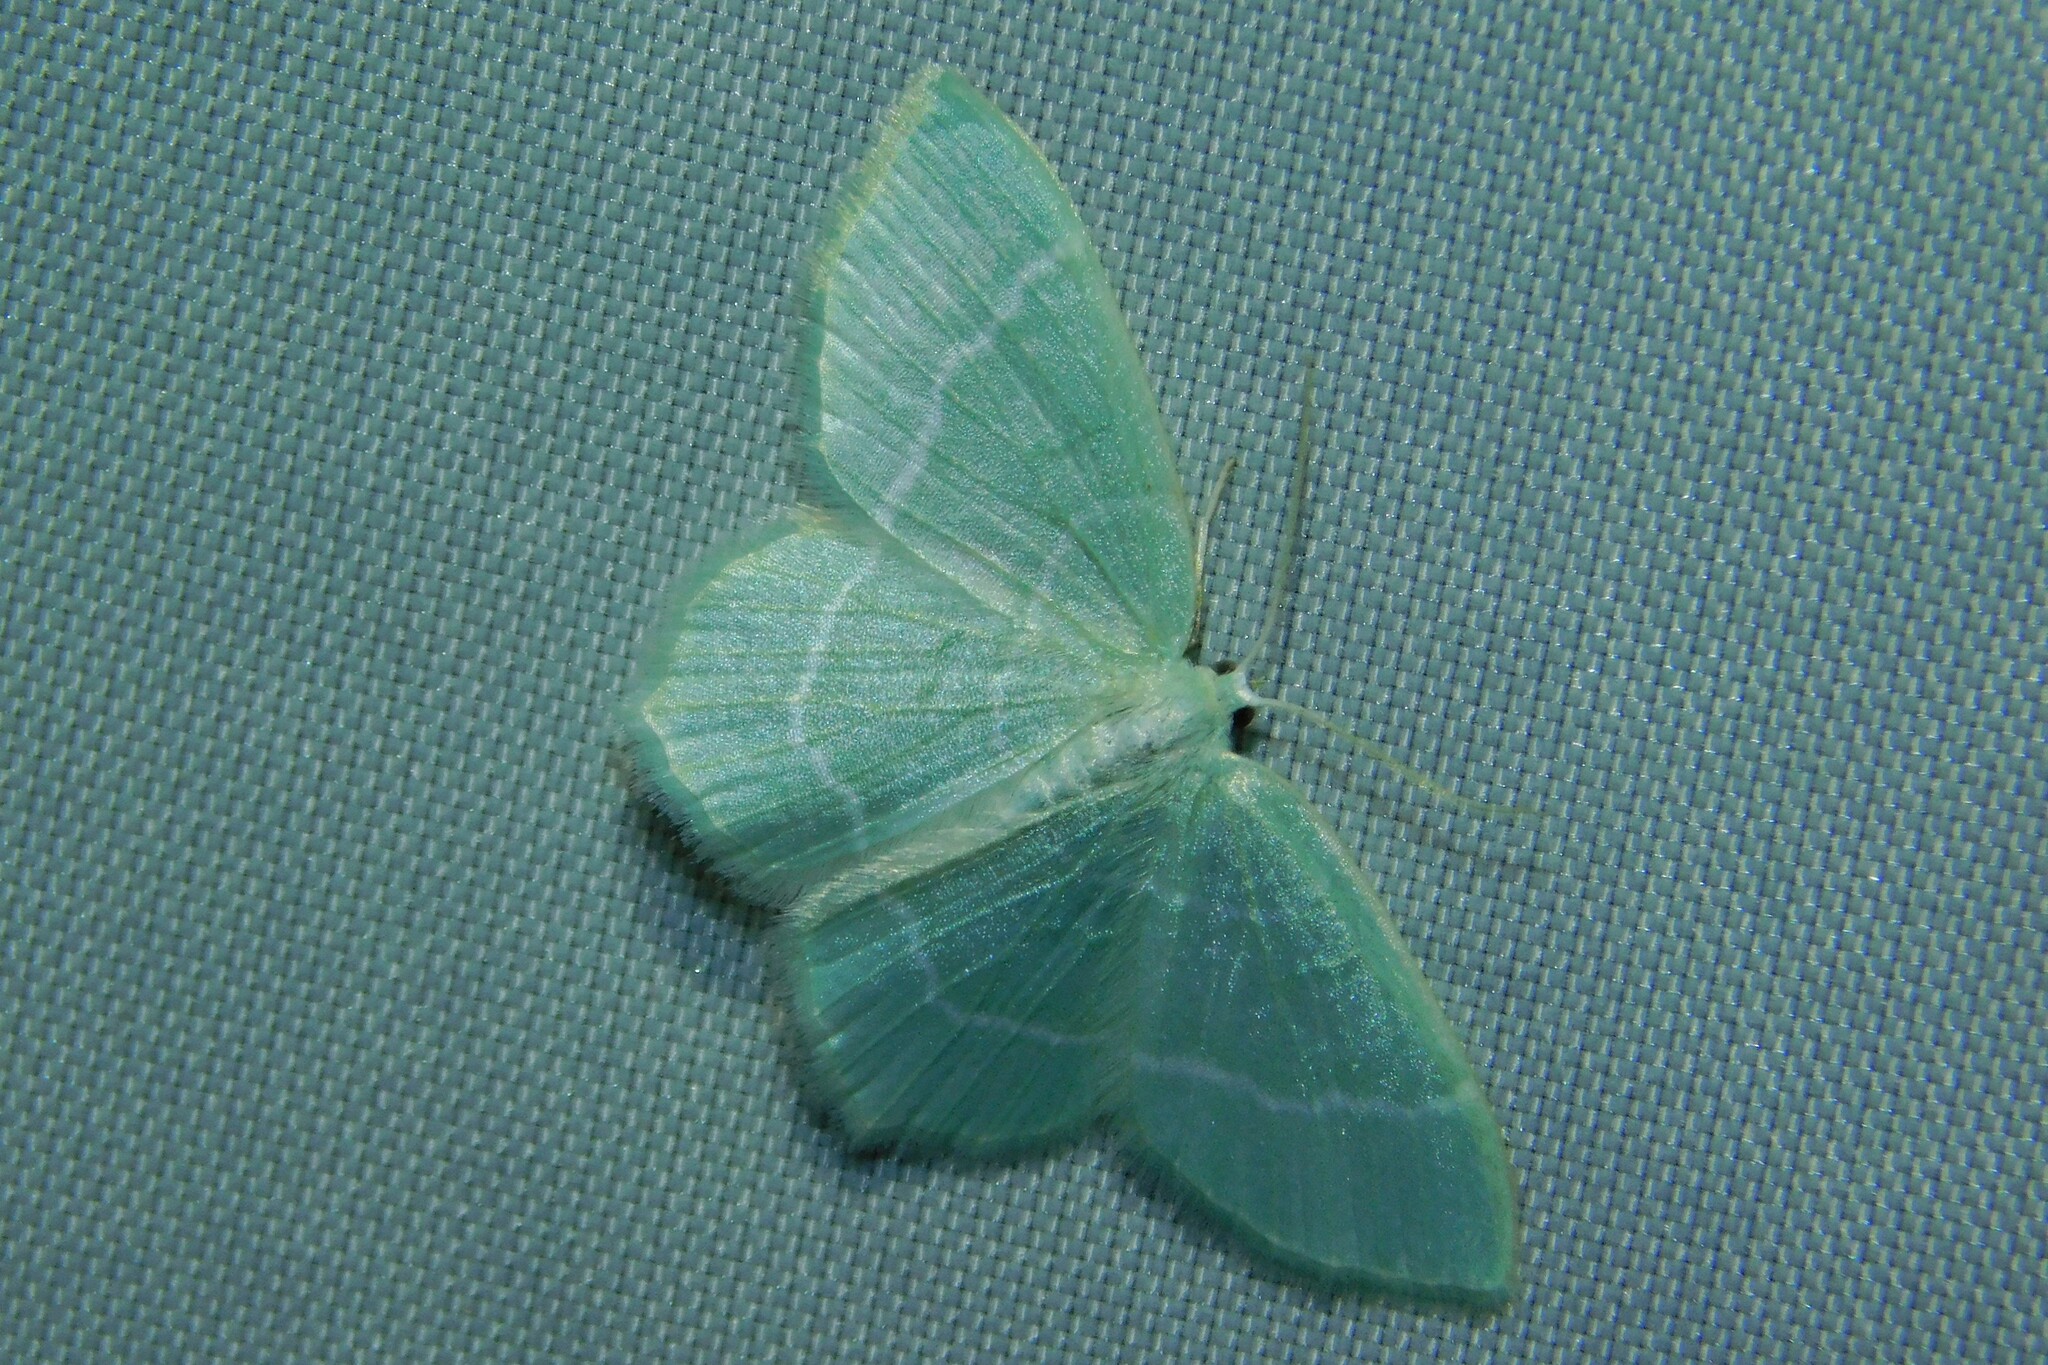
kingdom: Animalia
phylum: Arthropoda
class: Insecta
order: Lepidoptera
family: Geometridae
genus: Jodis
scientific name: Jodis lactearia
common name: Little emerald
